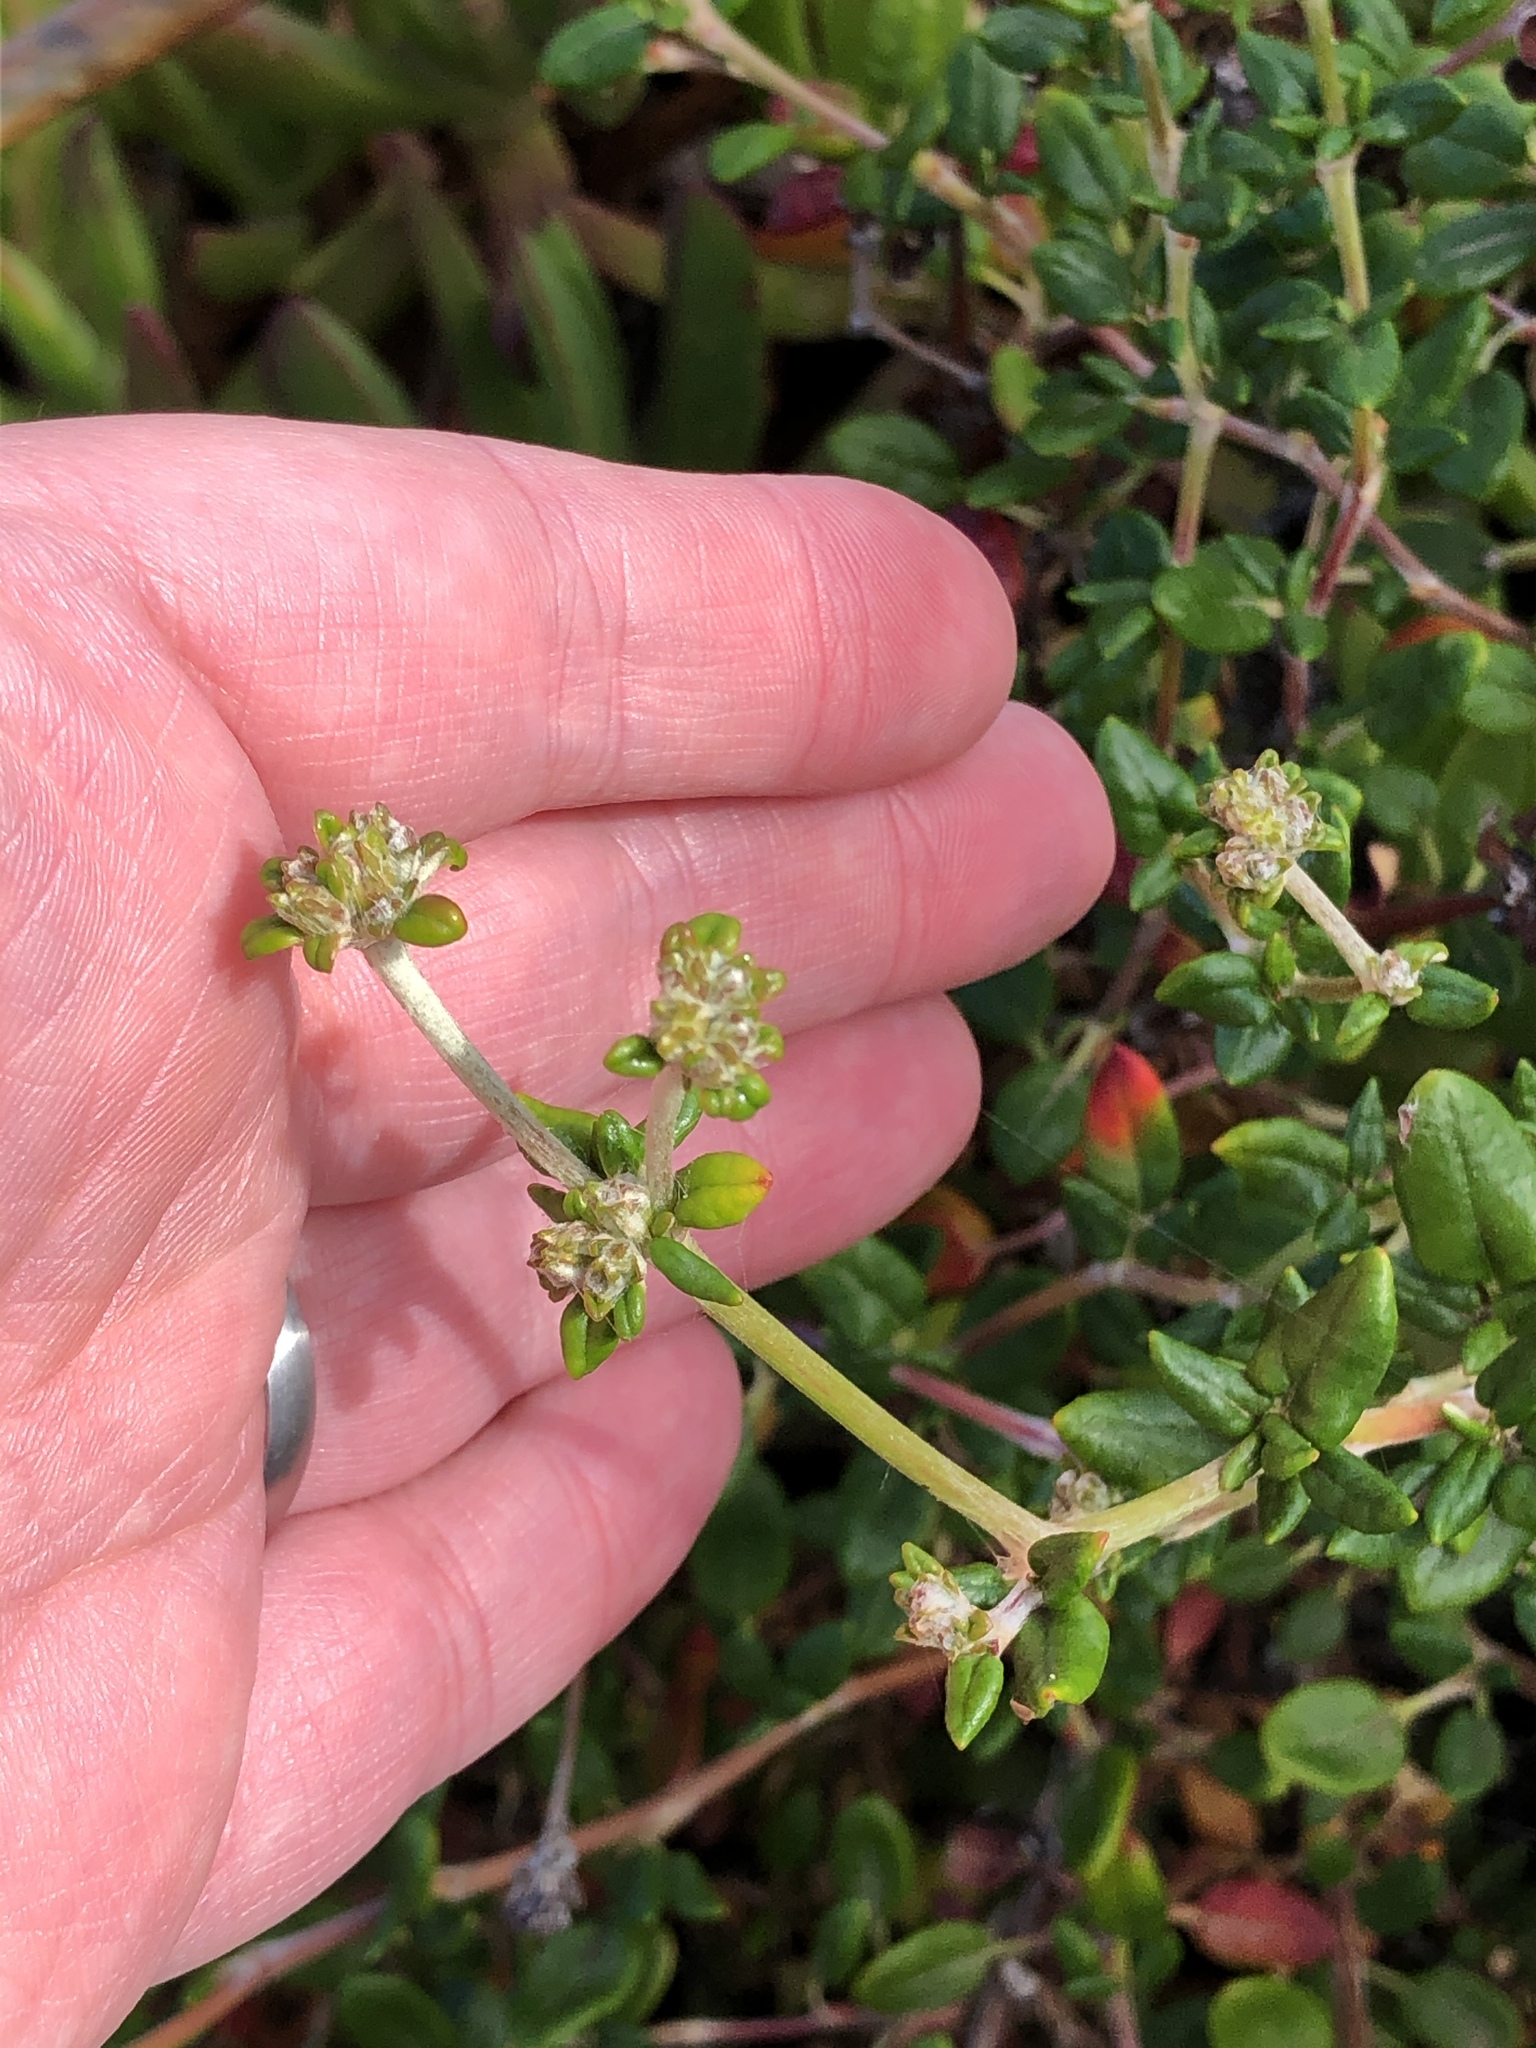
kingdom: Plantae
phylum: Tracheophyta
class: Magnoliopsida
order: Caryophyllales
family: Polygonaceae
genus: Eriogonum
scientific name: Eriogonum parvifolium
